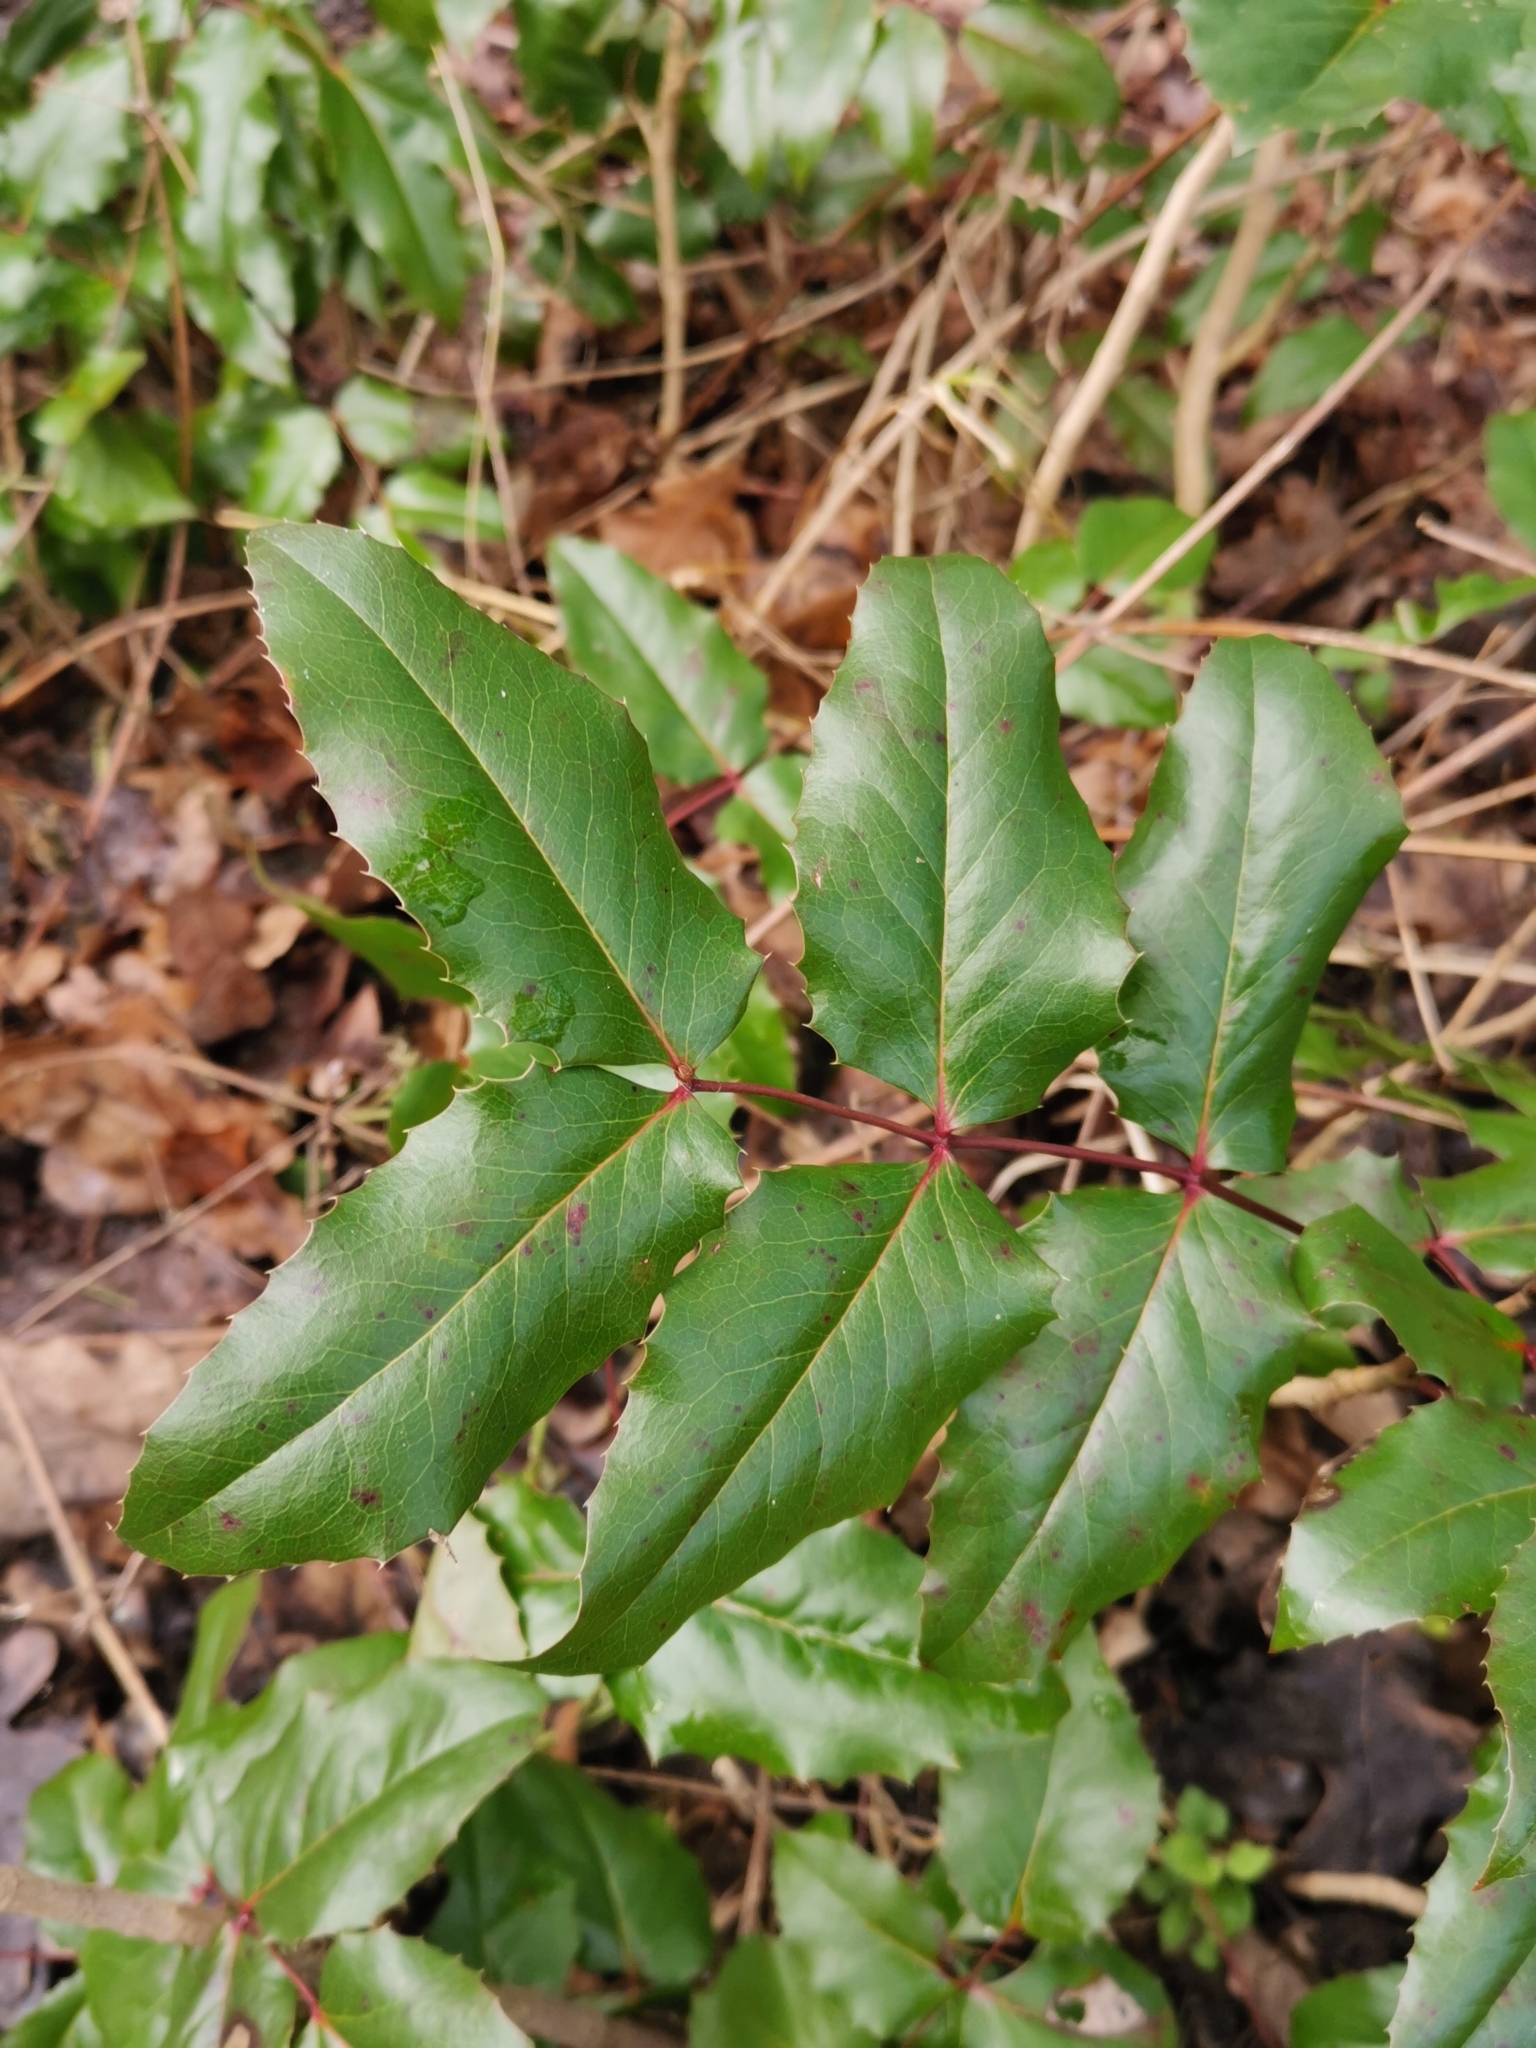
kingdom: Plantae
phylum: Tracheophyta
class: Magnoliopsida
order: Ranunculales
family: Berberidaceae
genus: Mahonia
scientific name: Mahonia aquifolium
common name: Oregon-grape
